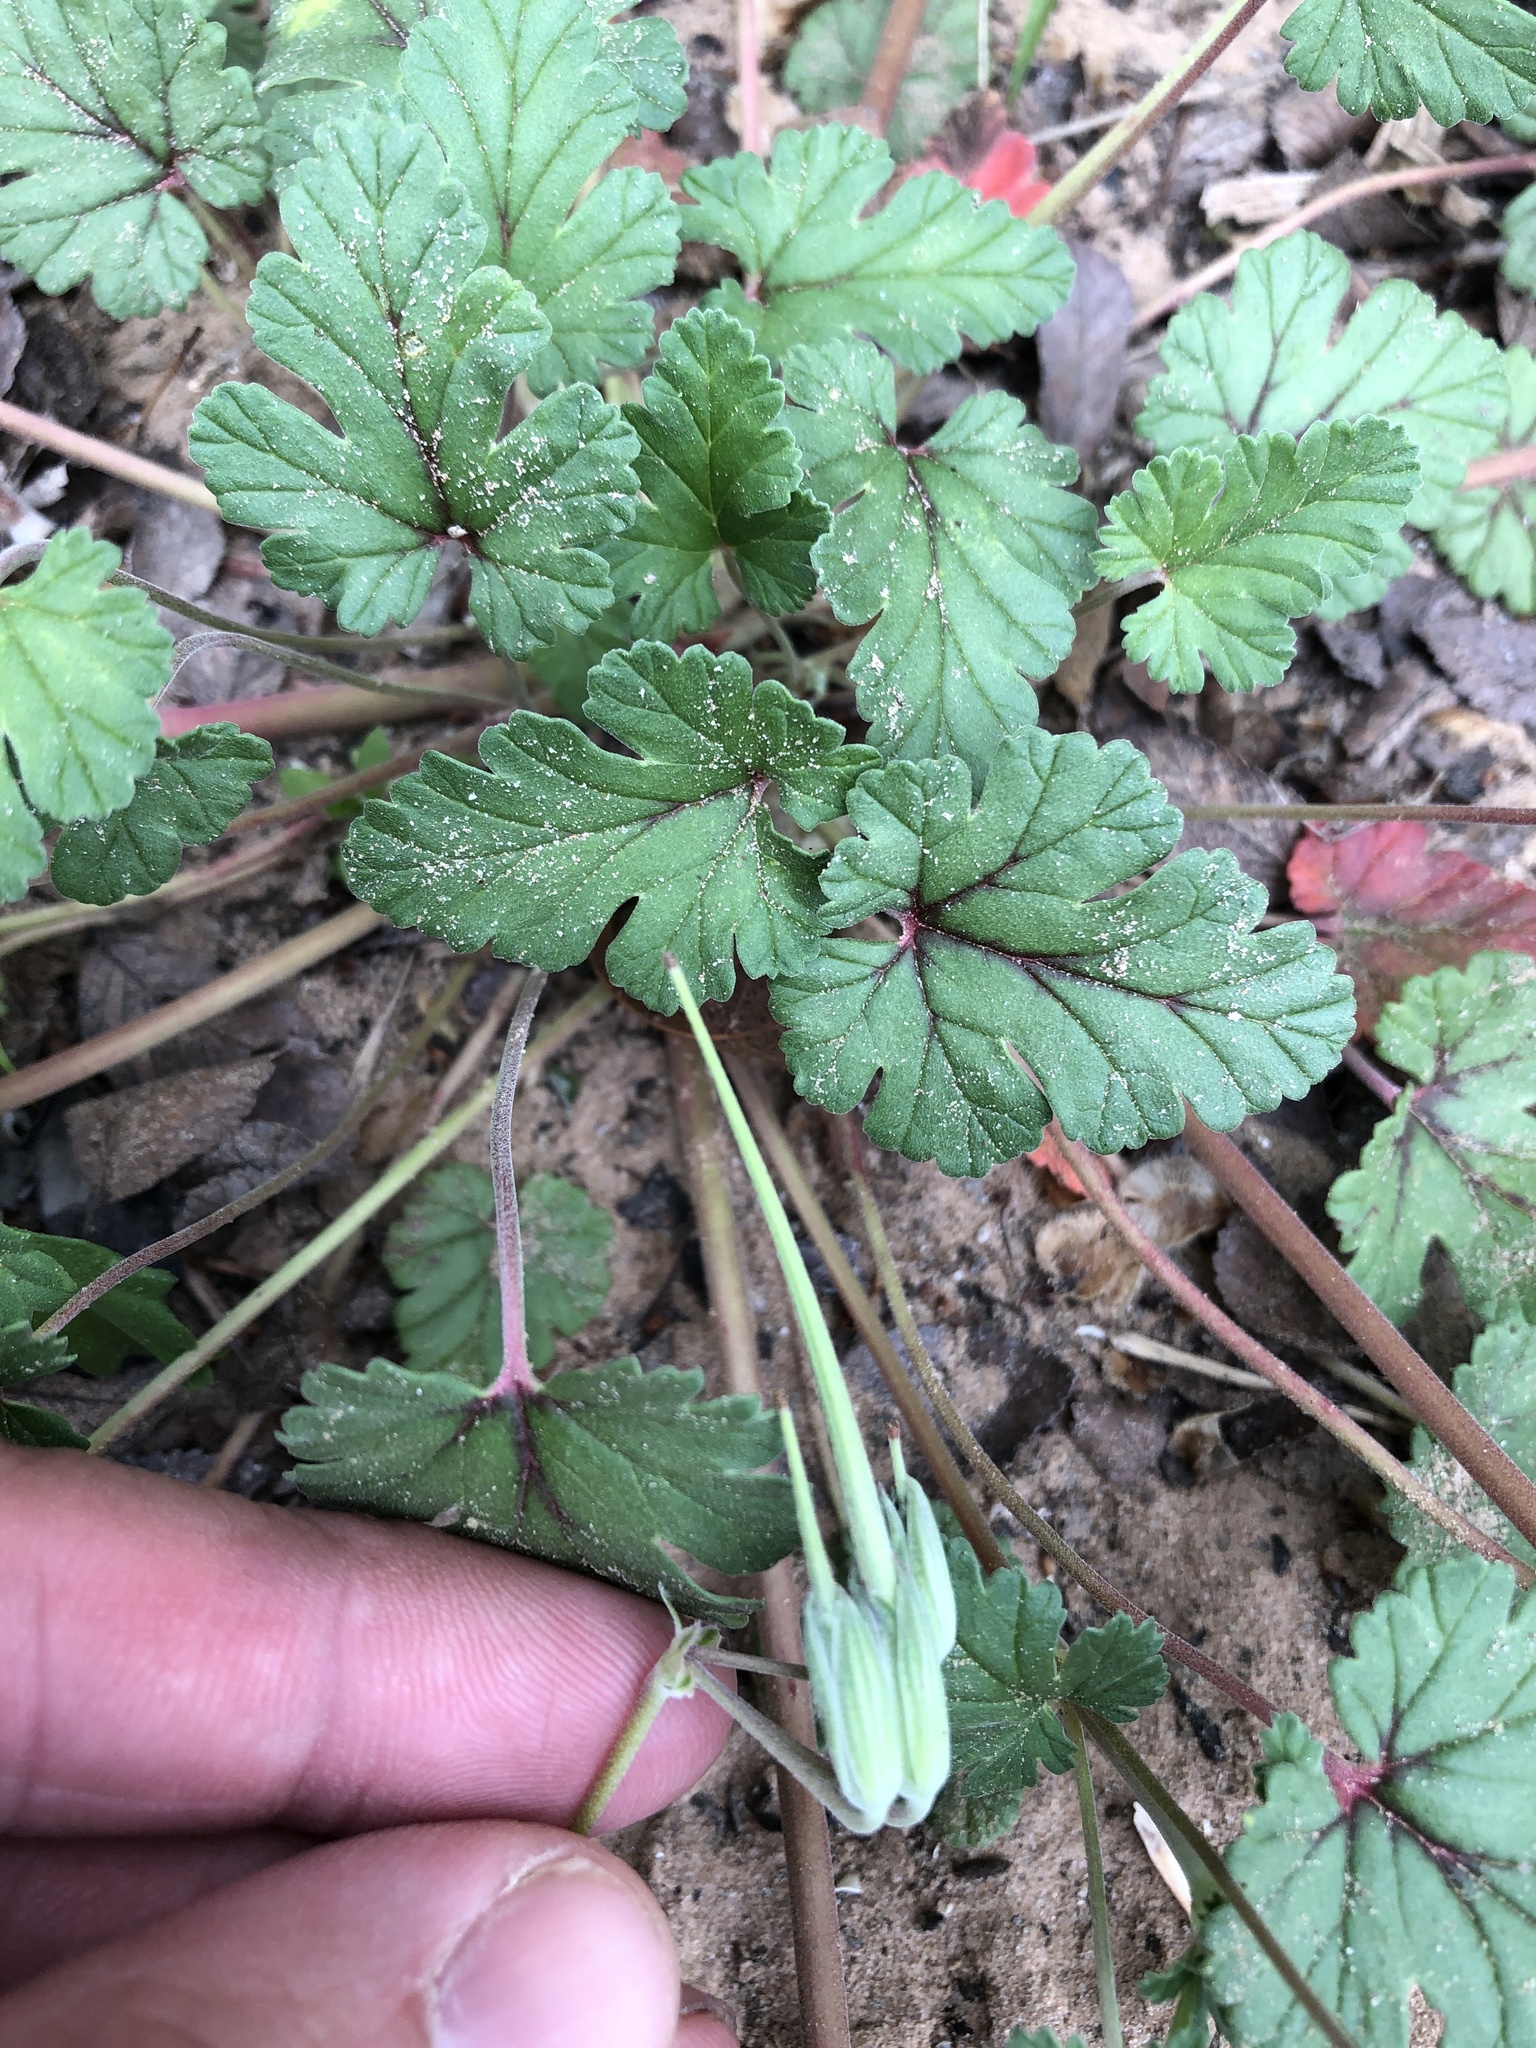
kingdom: Plantae
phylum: Tracheophyta
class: Magnoliopsida
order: Geraniales
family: Geraniaceae
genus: Erodium
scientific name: Erodium texanum
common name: Texas stork's-bill
